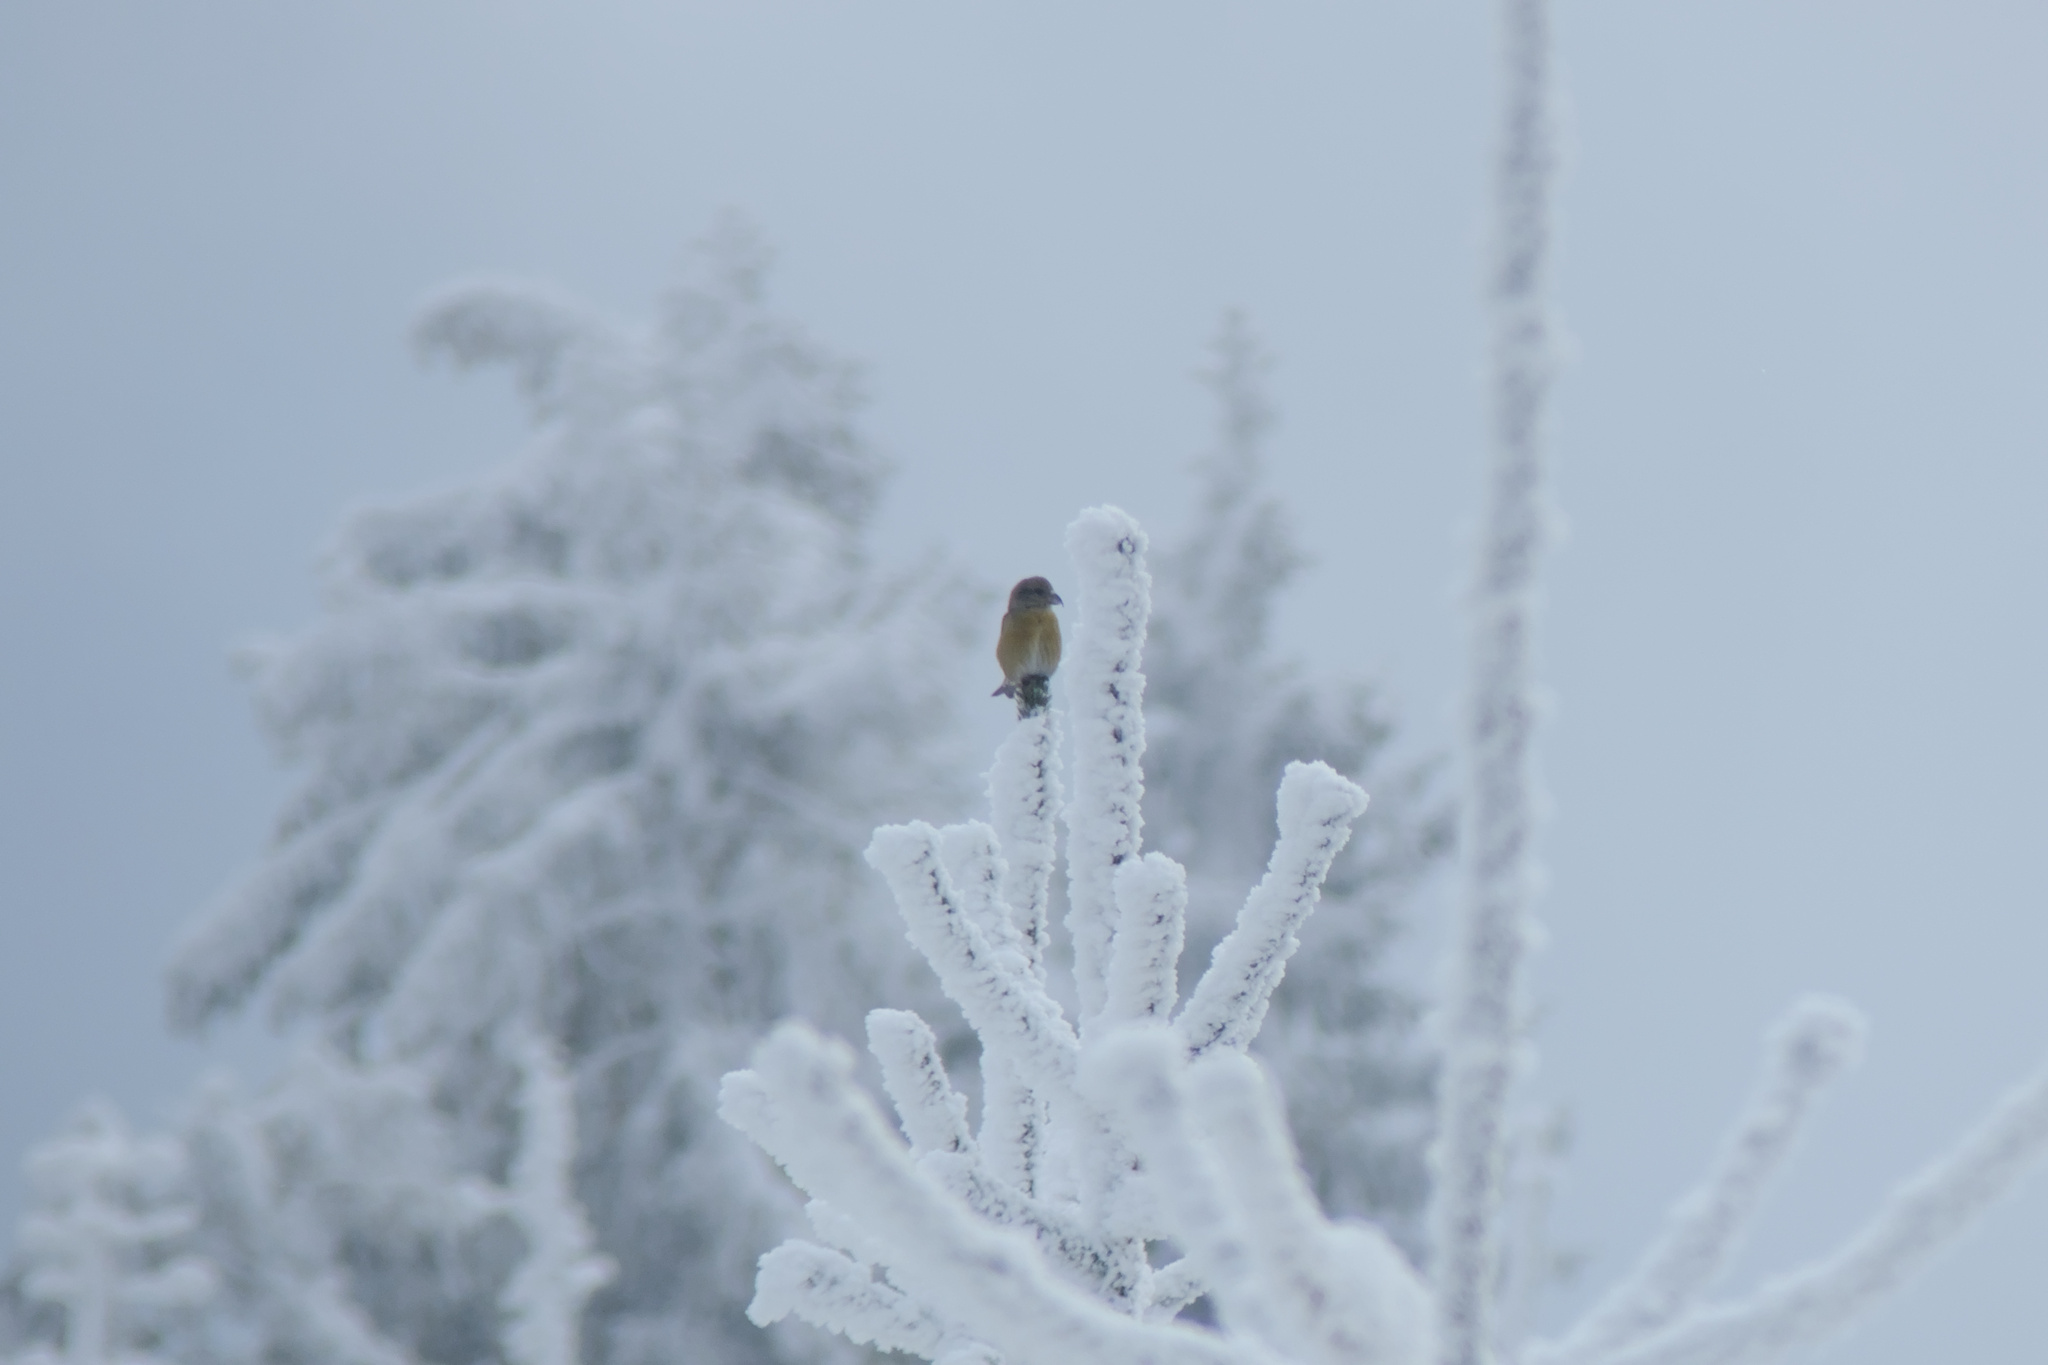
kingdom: Animalia
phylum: Chordata
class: Aves
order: Passeriformes
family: Fringillidae
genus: Loxia
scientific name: Loxia curvirostra
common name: Red crossbill
